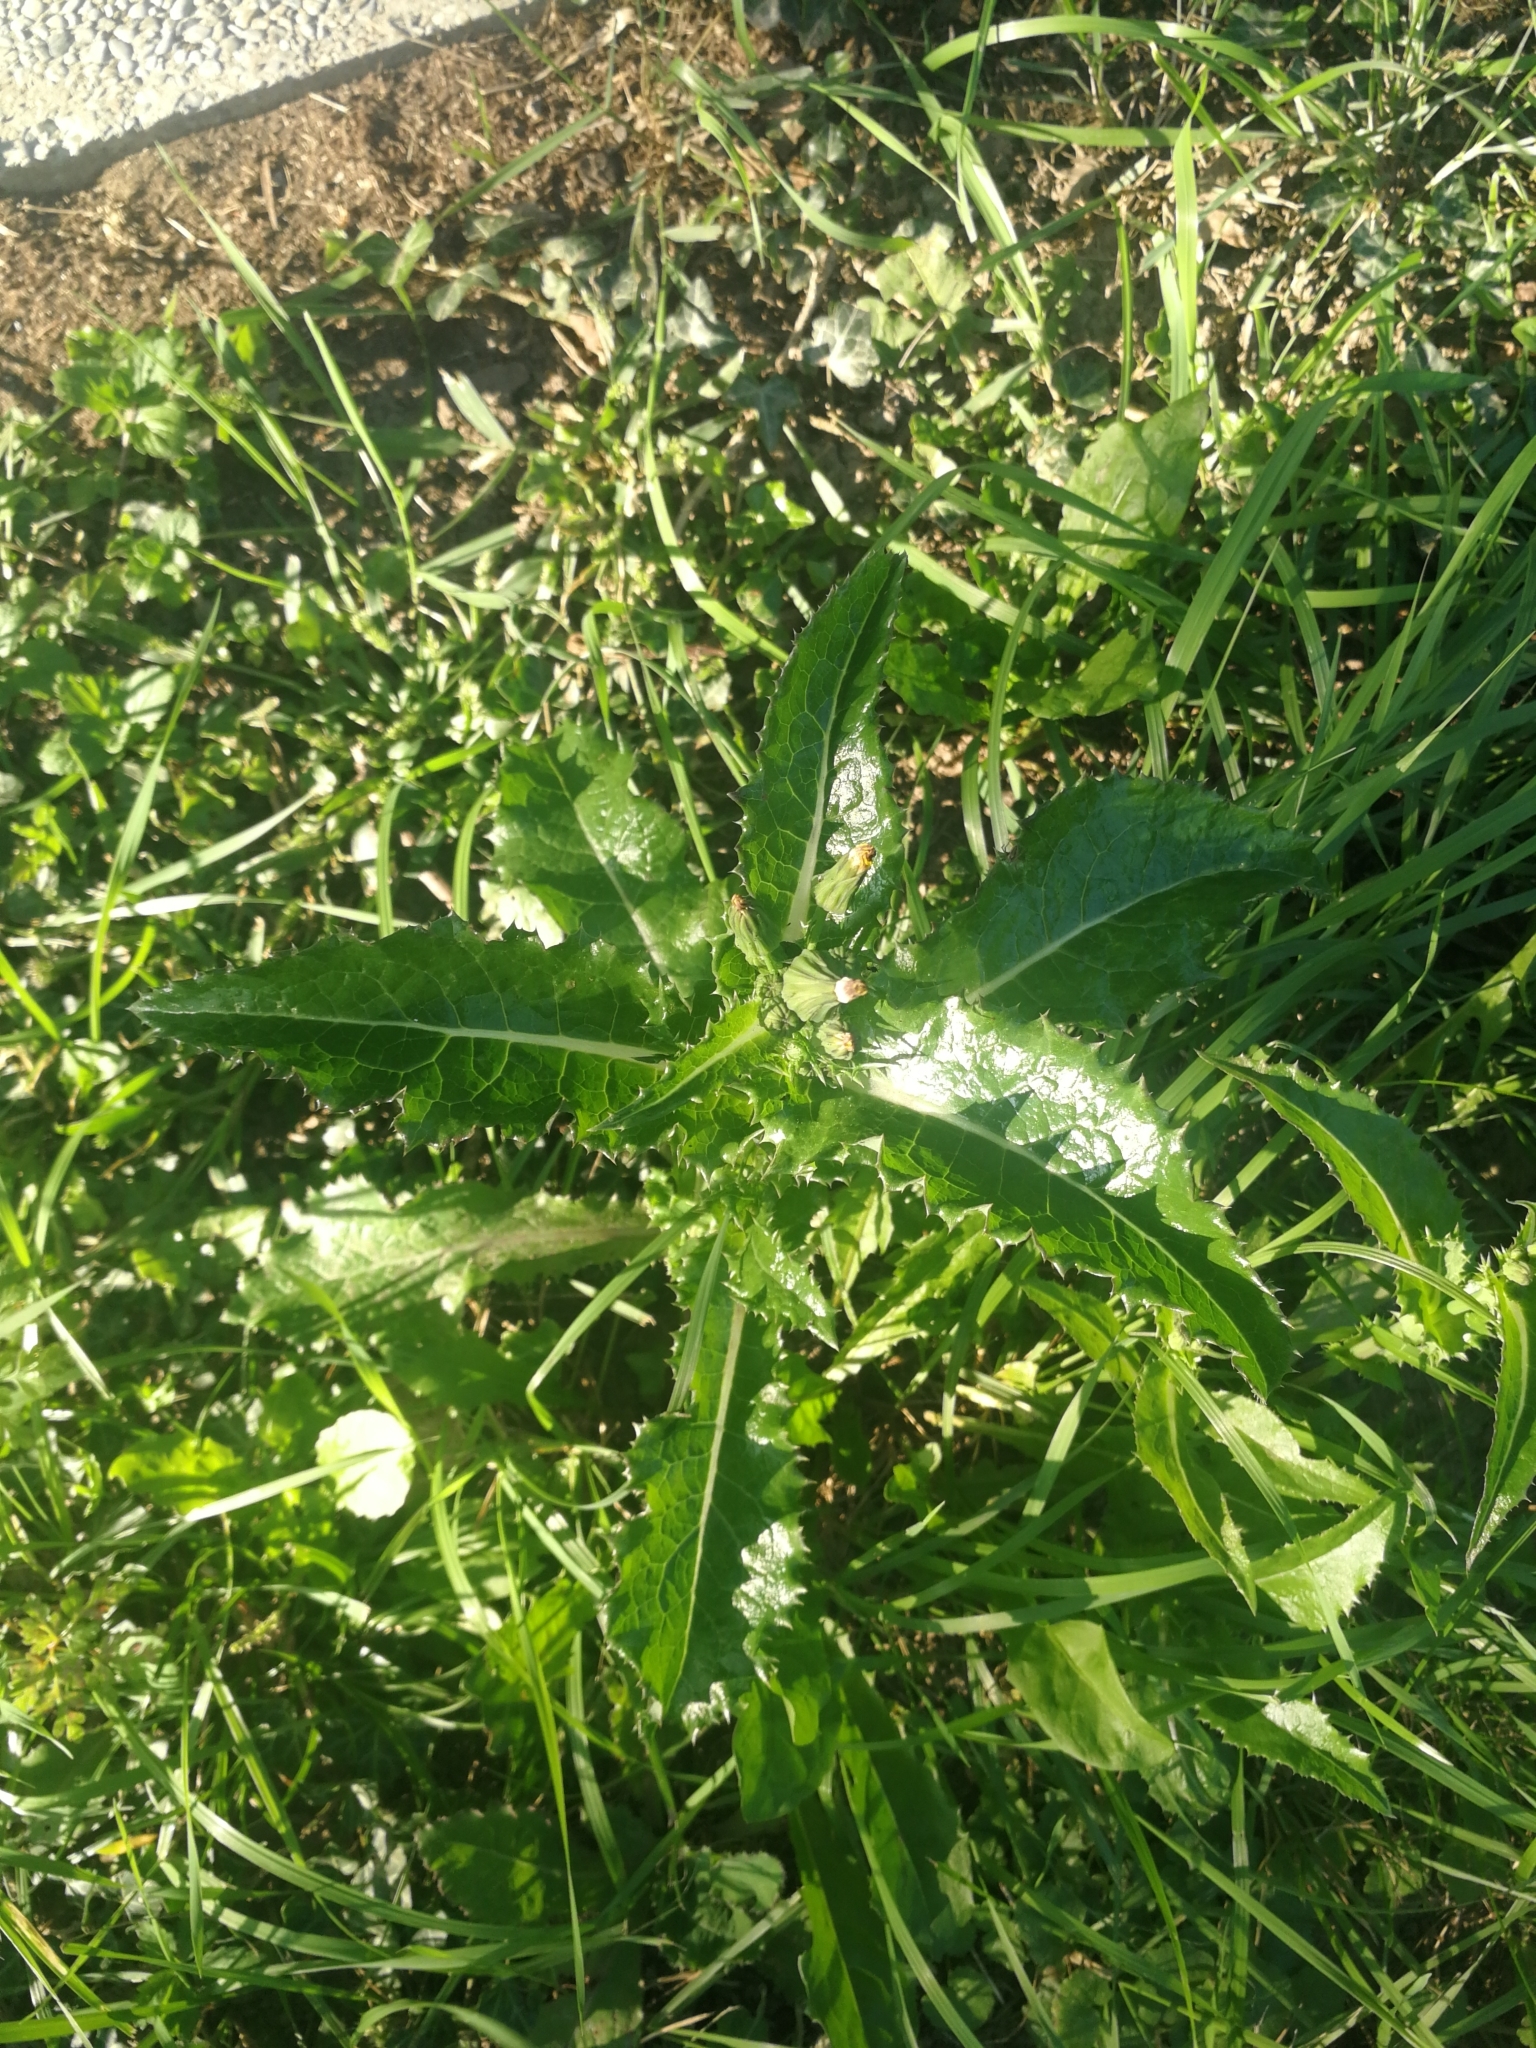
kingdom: Plantae
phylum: Tracheophyta
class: Magnoliopsida
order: Asterales
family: Asteraceae
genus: Sonchus
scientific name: Sonchus asper
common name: Prickly sow-thistle
